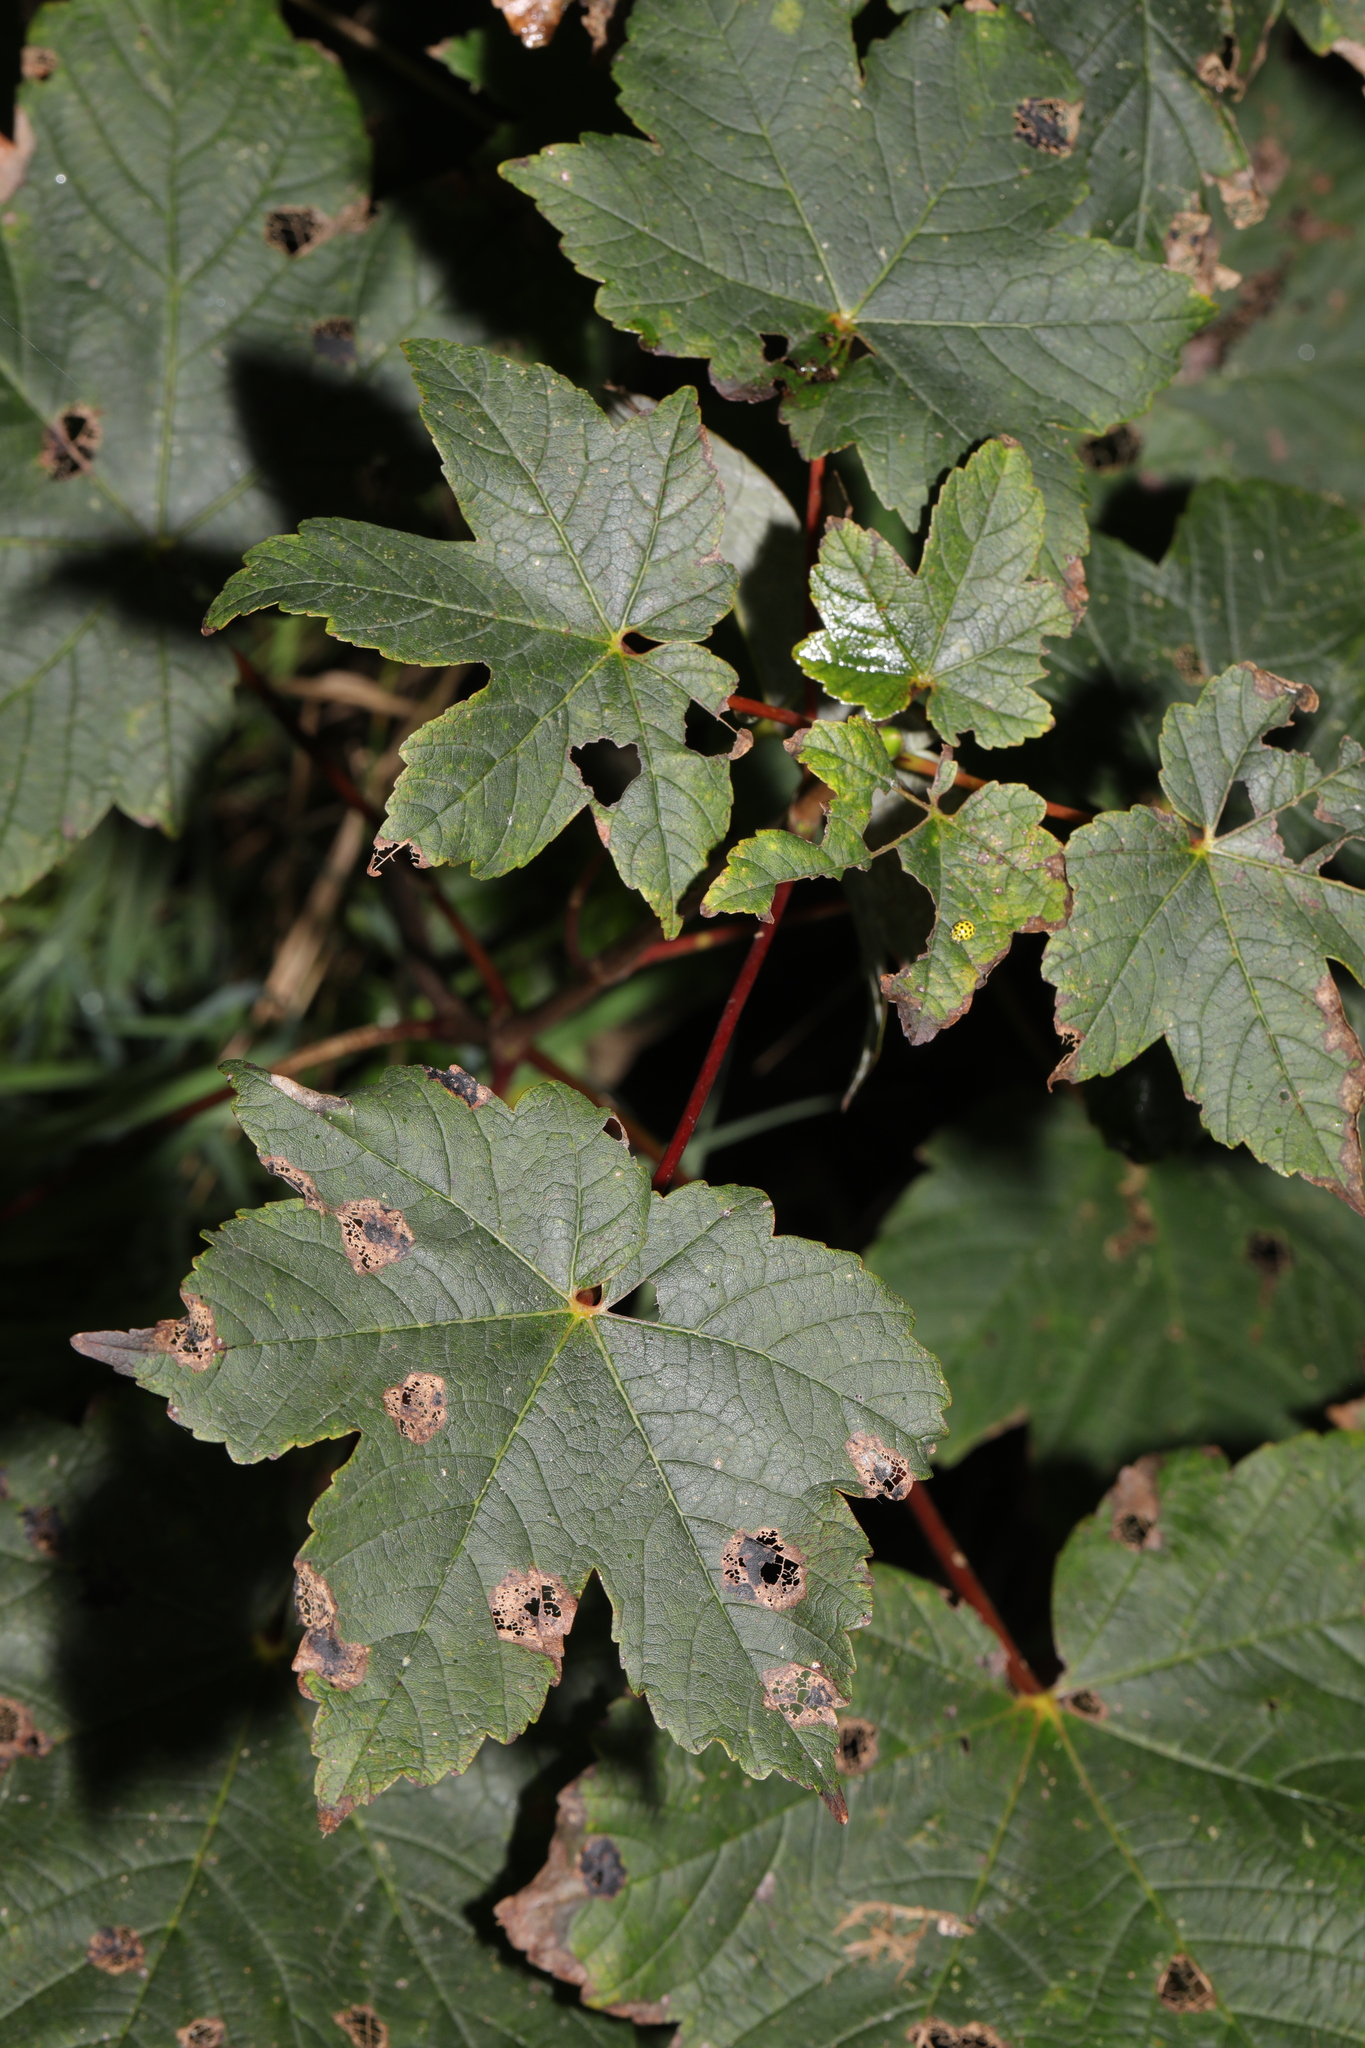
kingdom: Plantae
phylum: Tracheophyta
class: Magnoliopsida
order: Sapindales
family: Sapindaceae
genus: Acer
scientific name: Acer pseudoplatanus
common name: Sycamore
